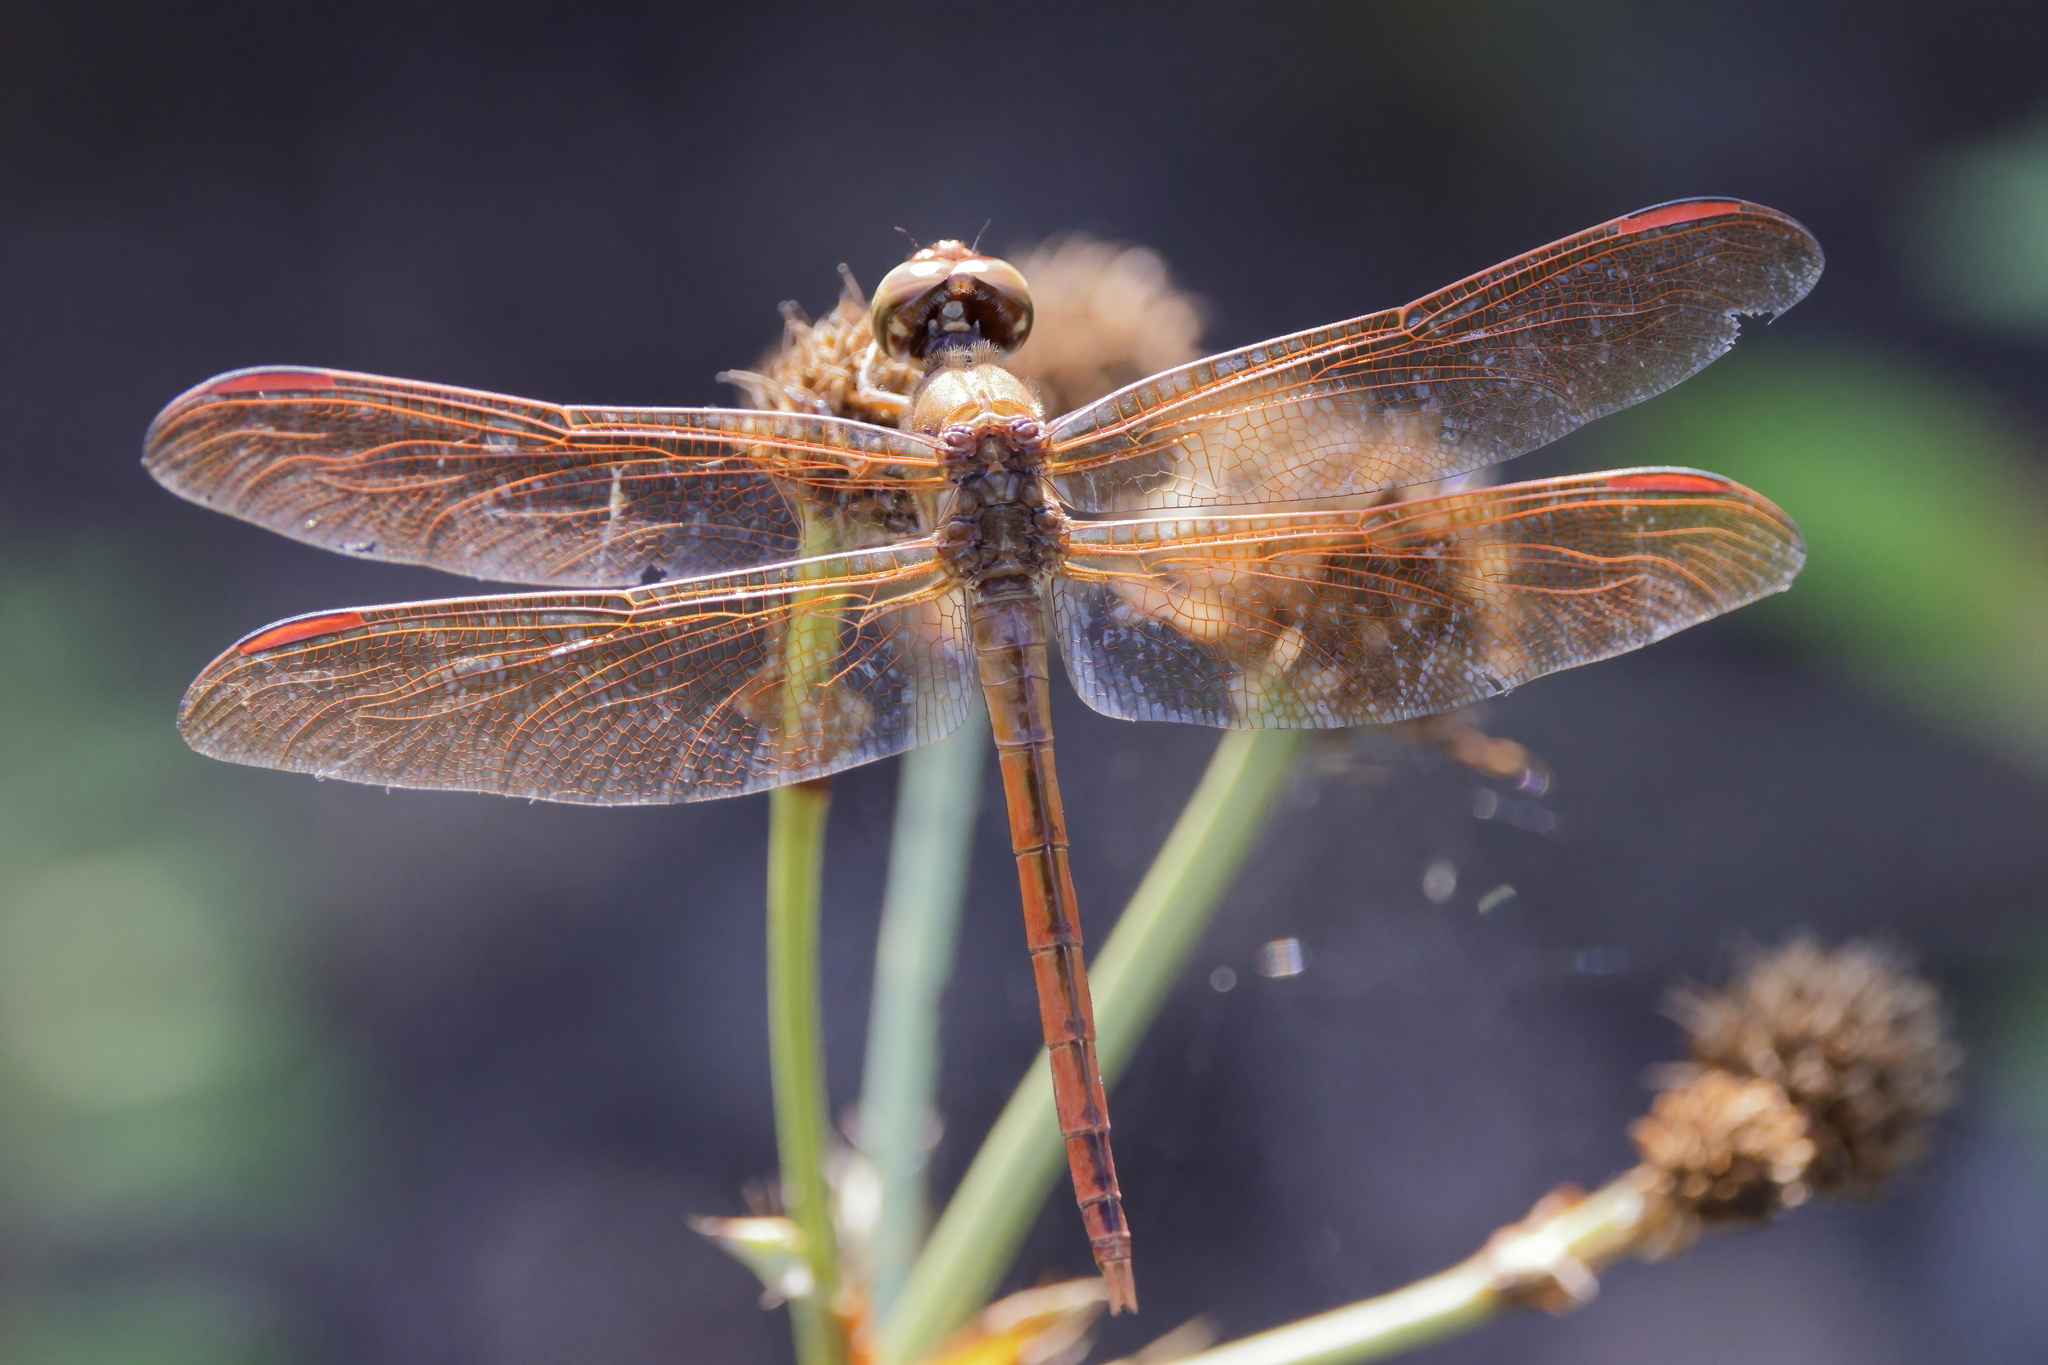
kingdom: Animalia
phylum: Arthropoda
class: Insecta
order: Odonata
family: Libellulidae
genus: Libellula
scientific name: Libellula auripennis
